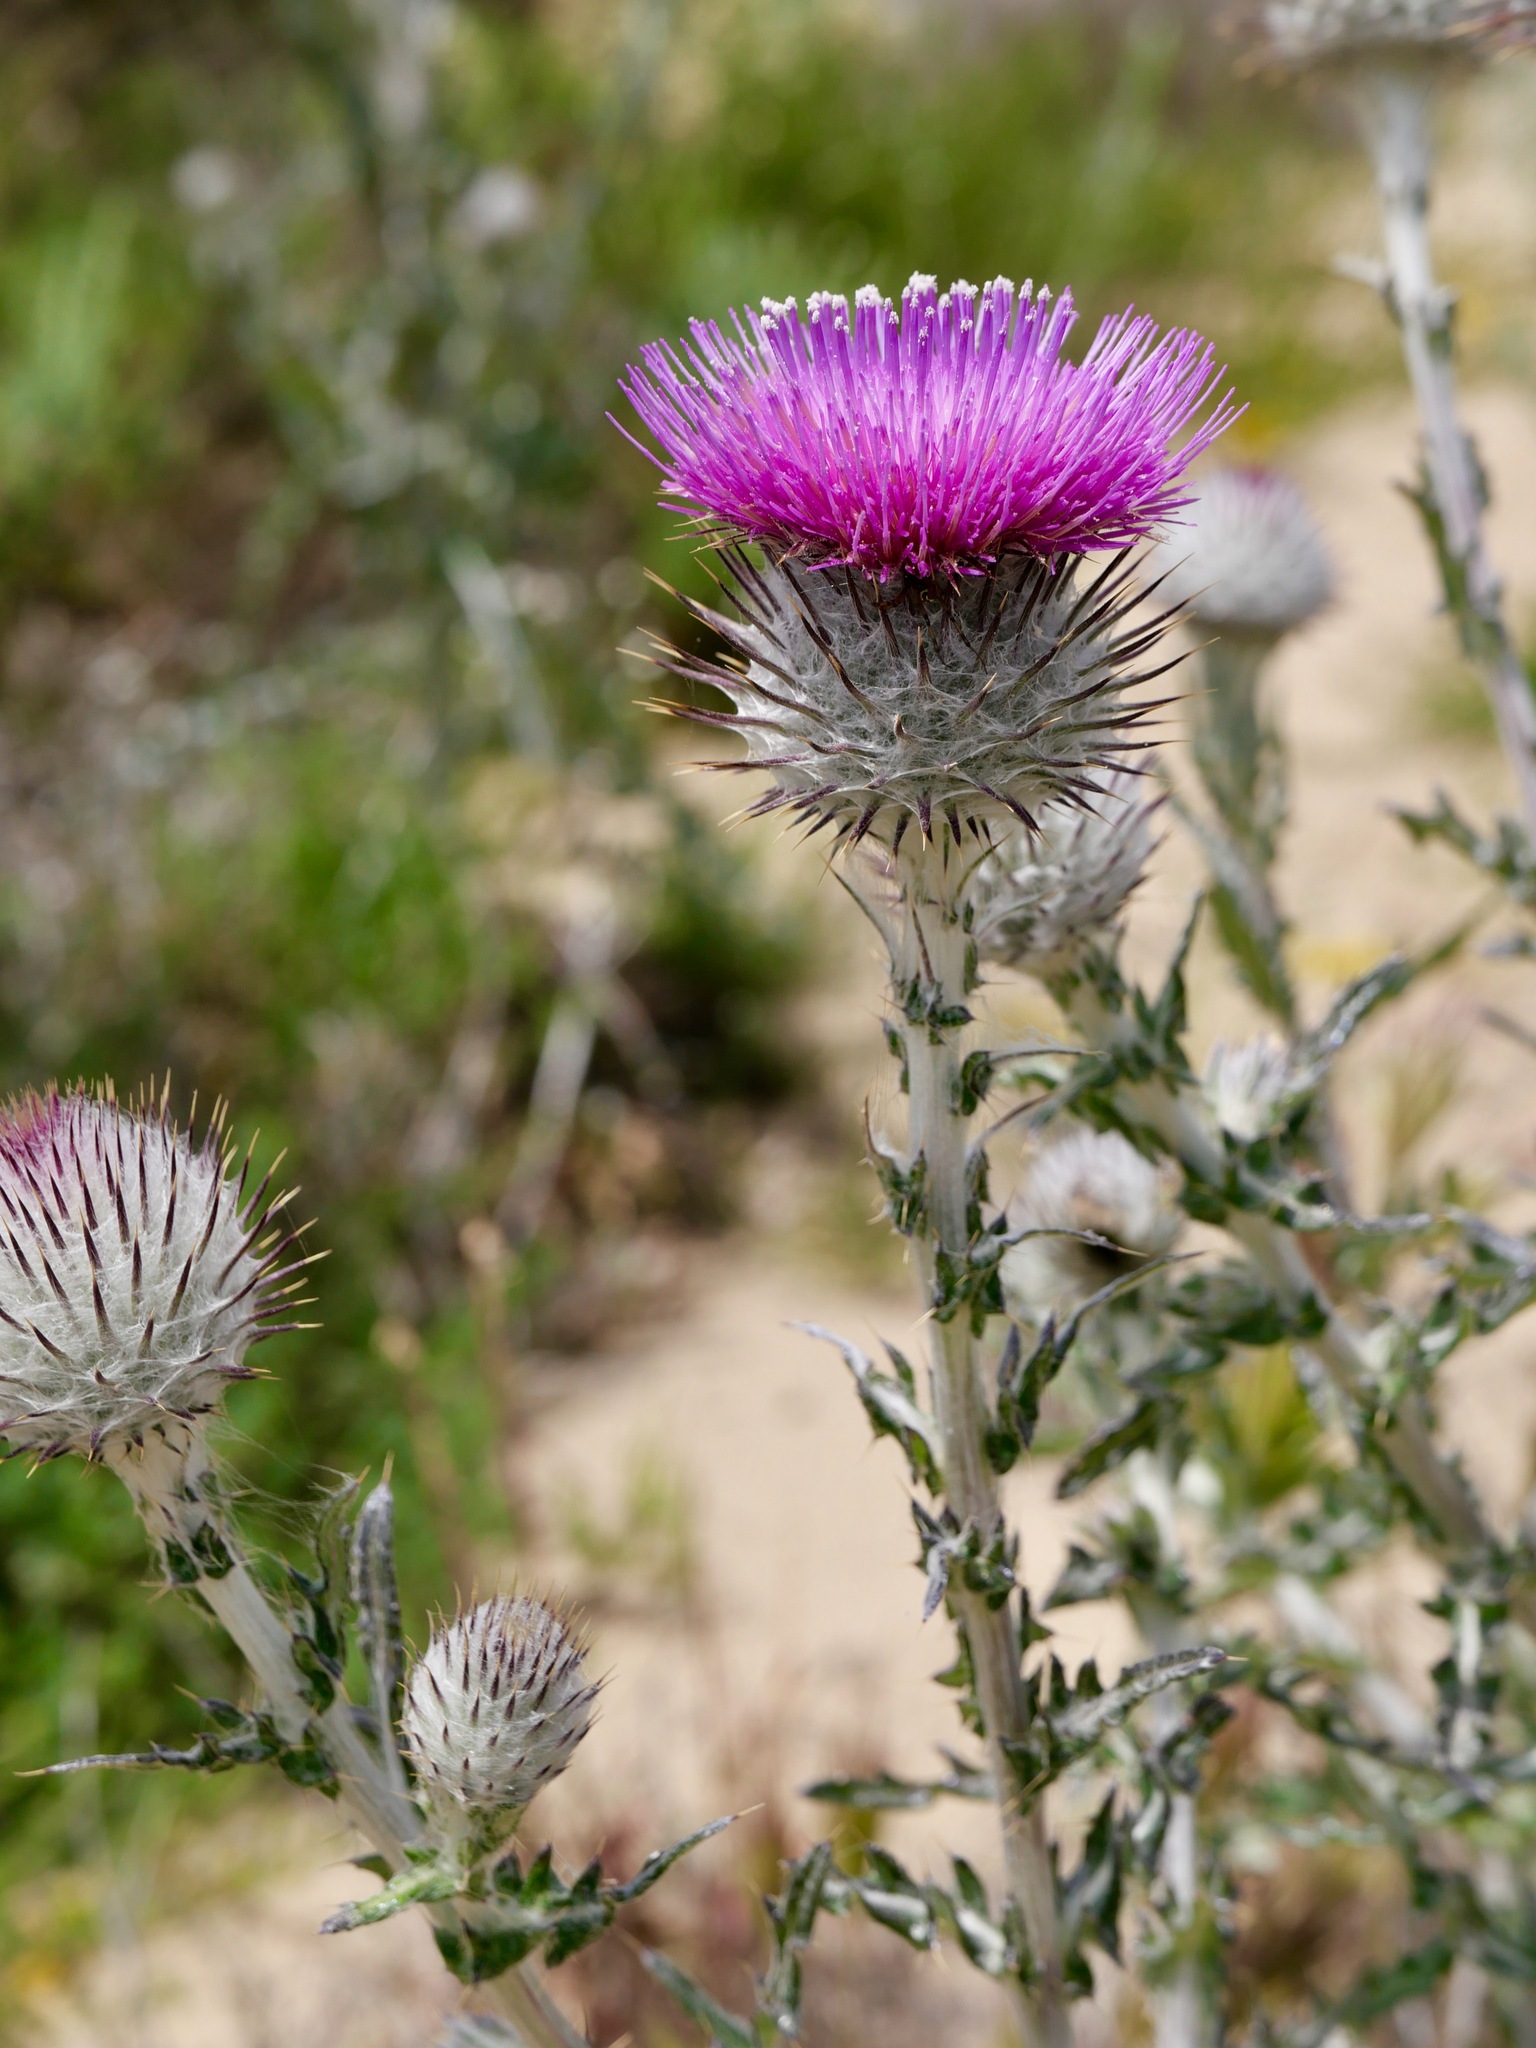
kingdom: Plantae
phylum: Tracheophyta
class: Magnoliopsida
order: Asterales
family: Asteraceae
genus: Cirsium
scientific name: Cirsium occidentale
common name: Western thistle
